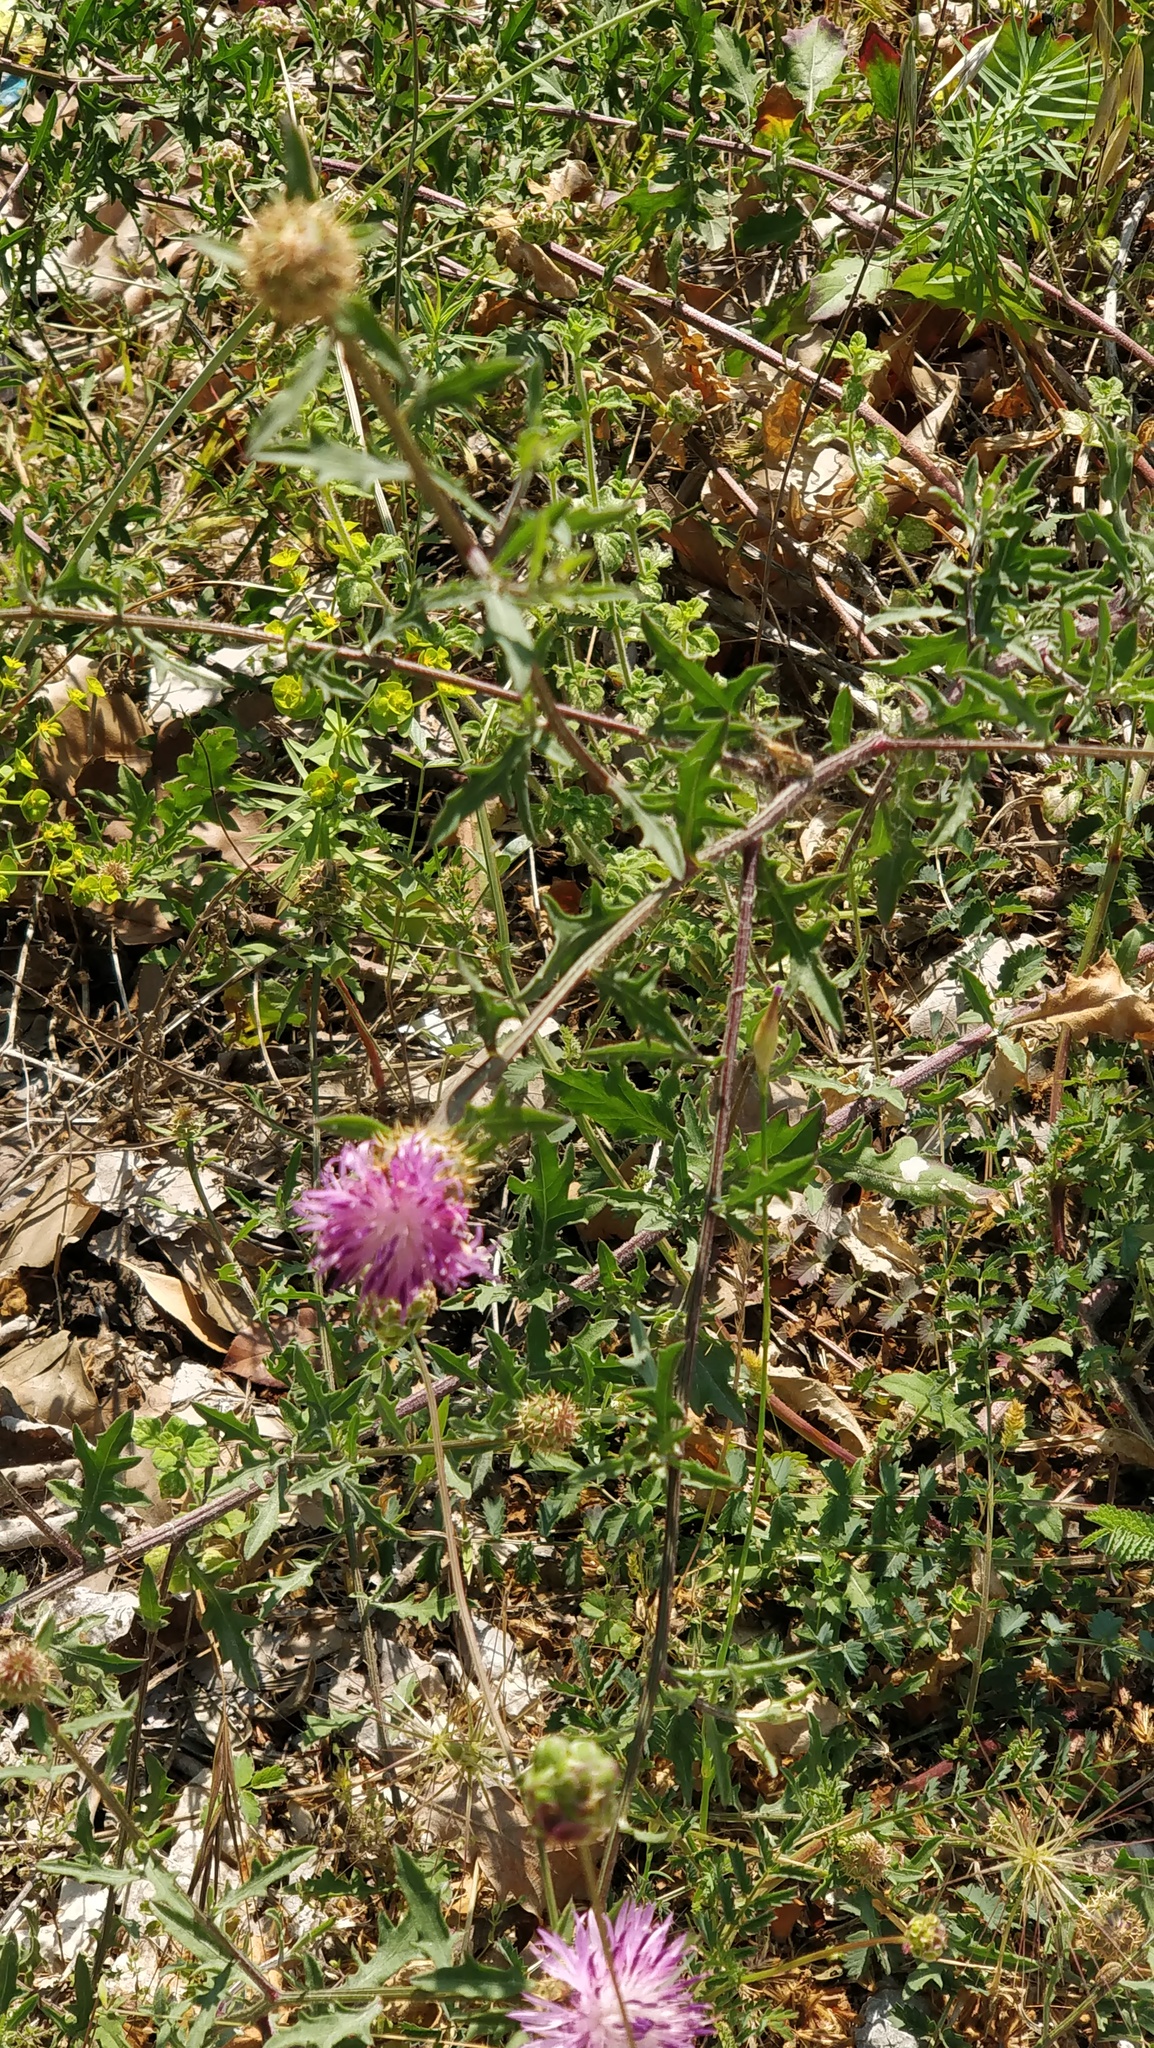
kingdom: Plantae
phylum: Tracheophyta
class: Magnoliopsida
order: Asterales
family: Asteraceae
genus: Centaurea
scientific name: Centaurea aspera
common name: Rough star-thistle
